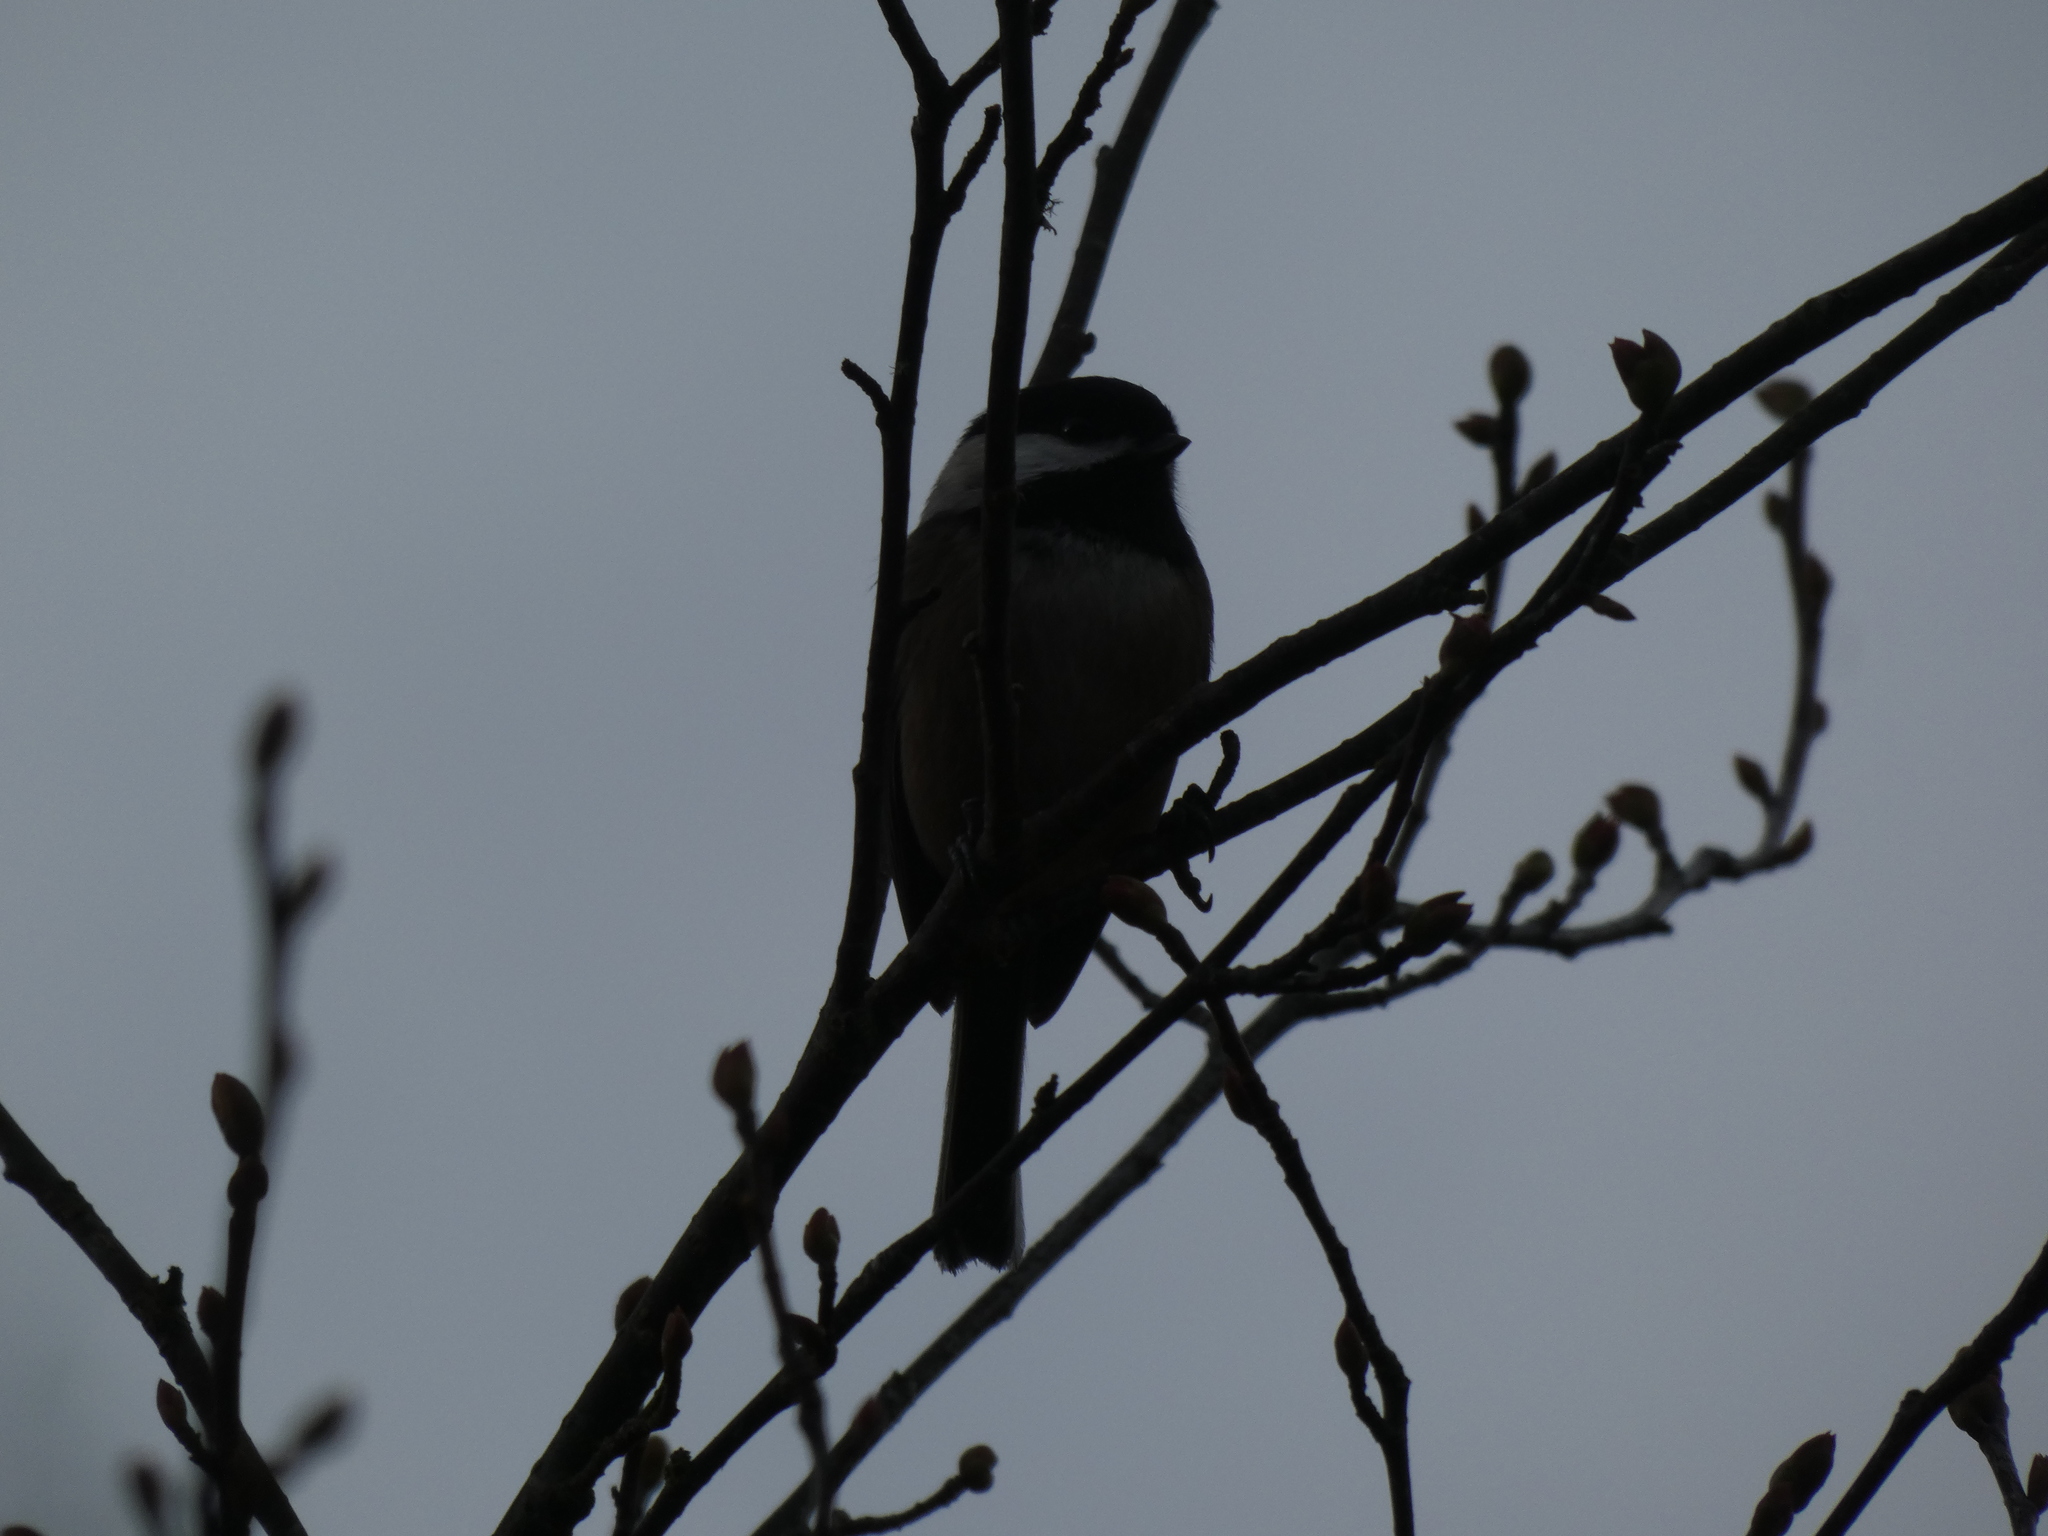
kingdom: Animalia
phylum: Chordata
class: Aves
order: Passeriformes
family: Paridae
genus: Poecile
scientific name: Poecile atricapillus
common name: Black-capped chickadee
